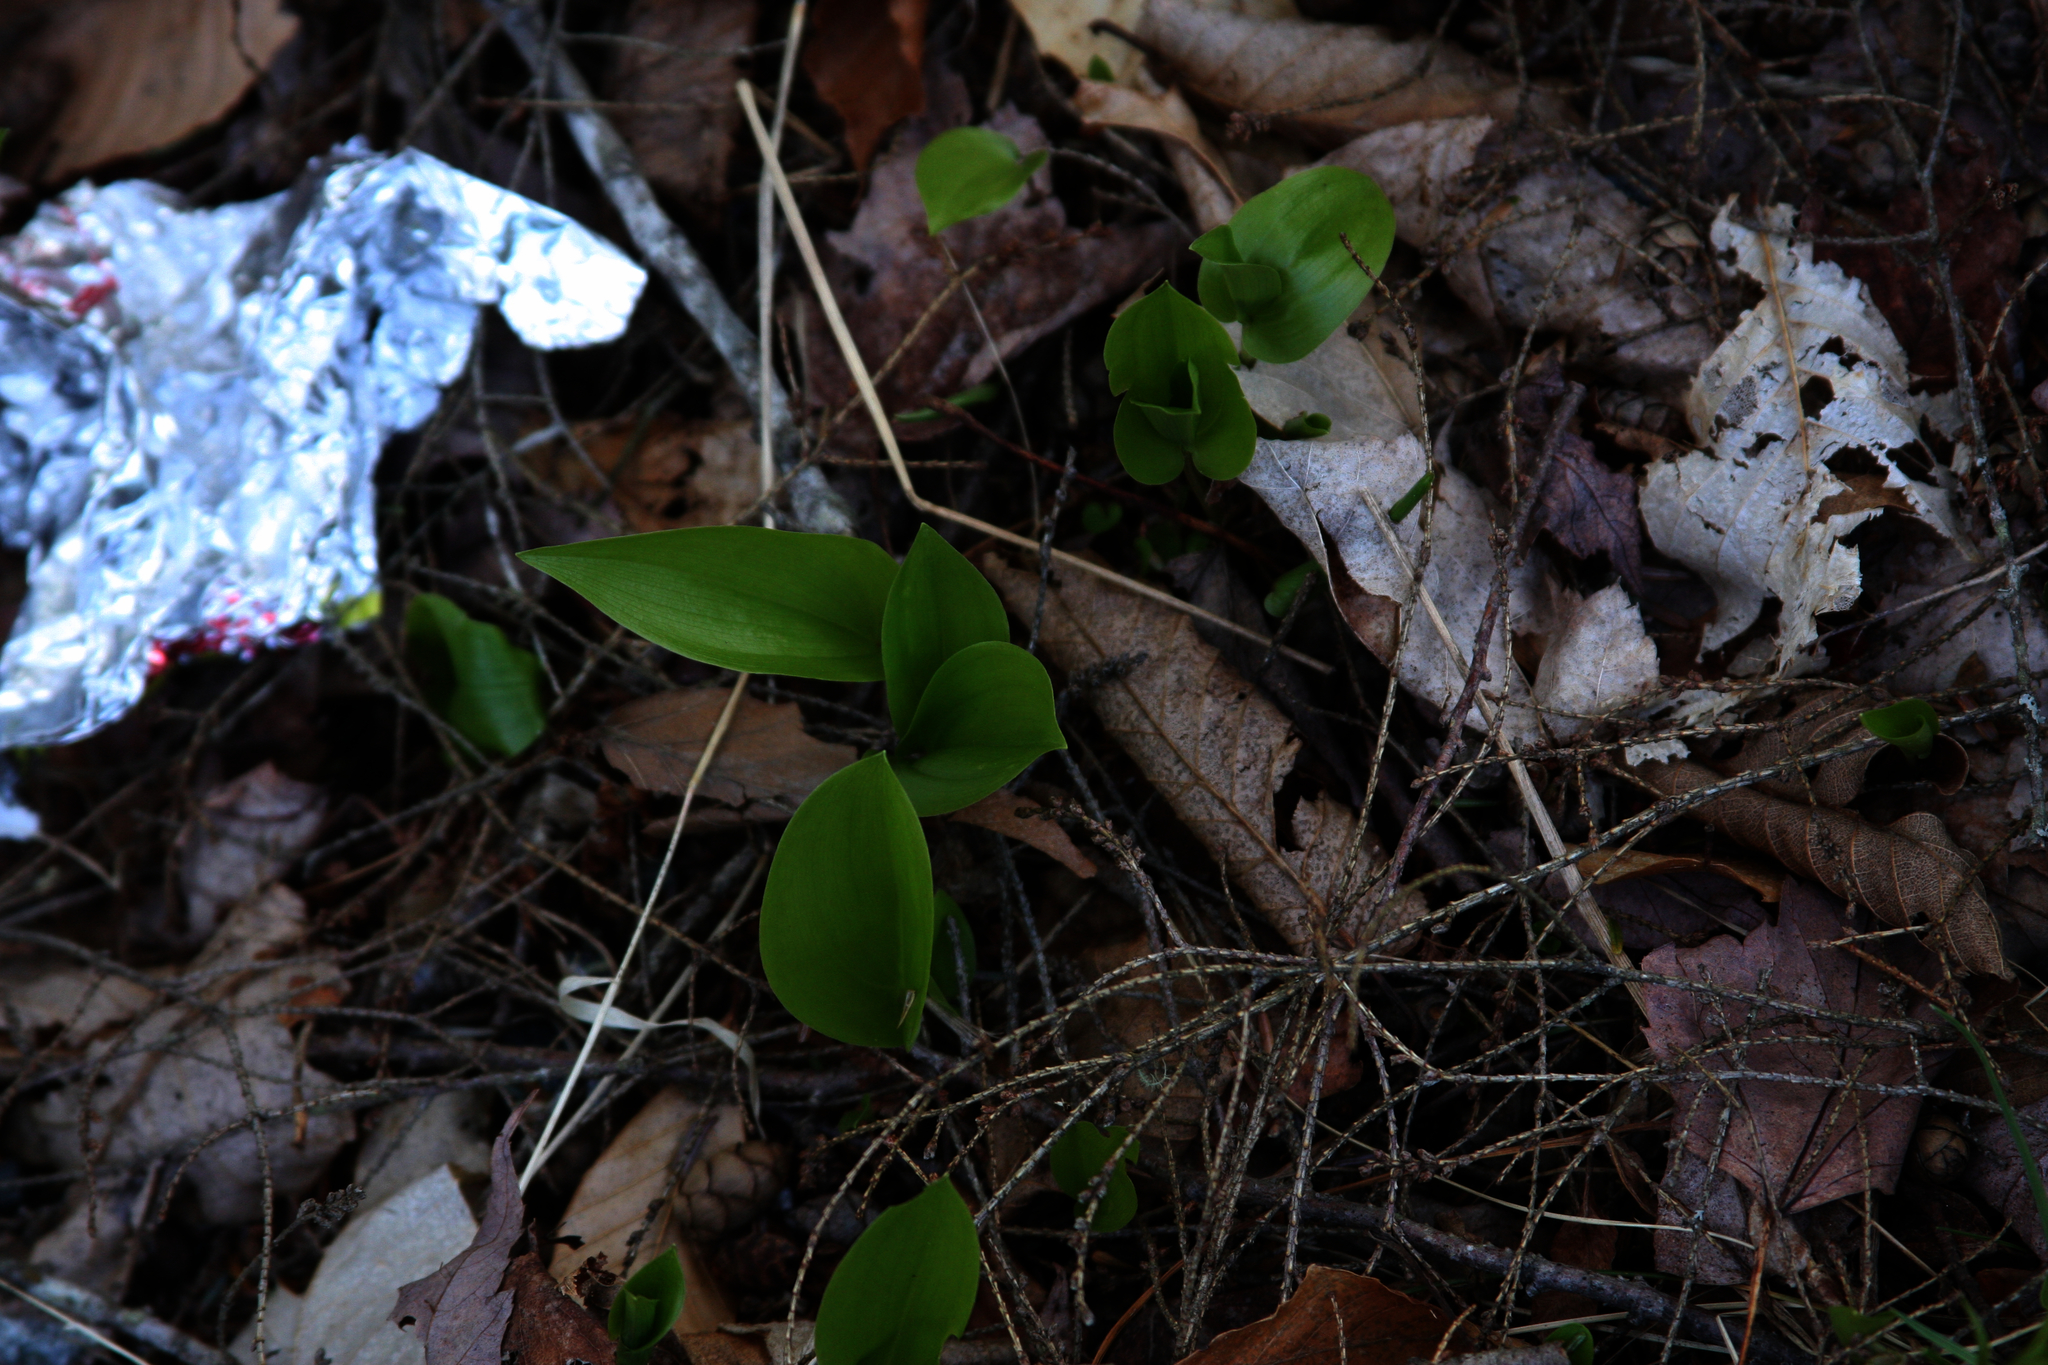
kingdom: Plantae
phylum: Tracheophyta
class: Liliopsida
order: Asparagales
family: Asparagaceae
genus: Maianthemum
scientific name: Maianthemum canadense
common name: False lily-of-the-valley
